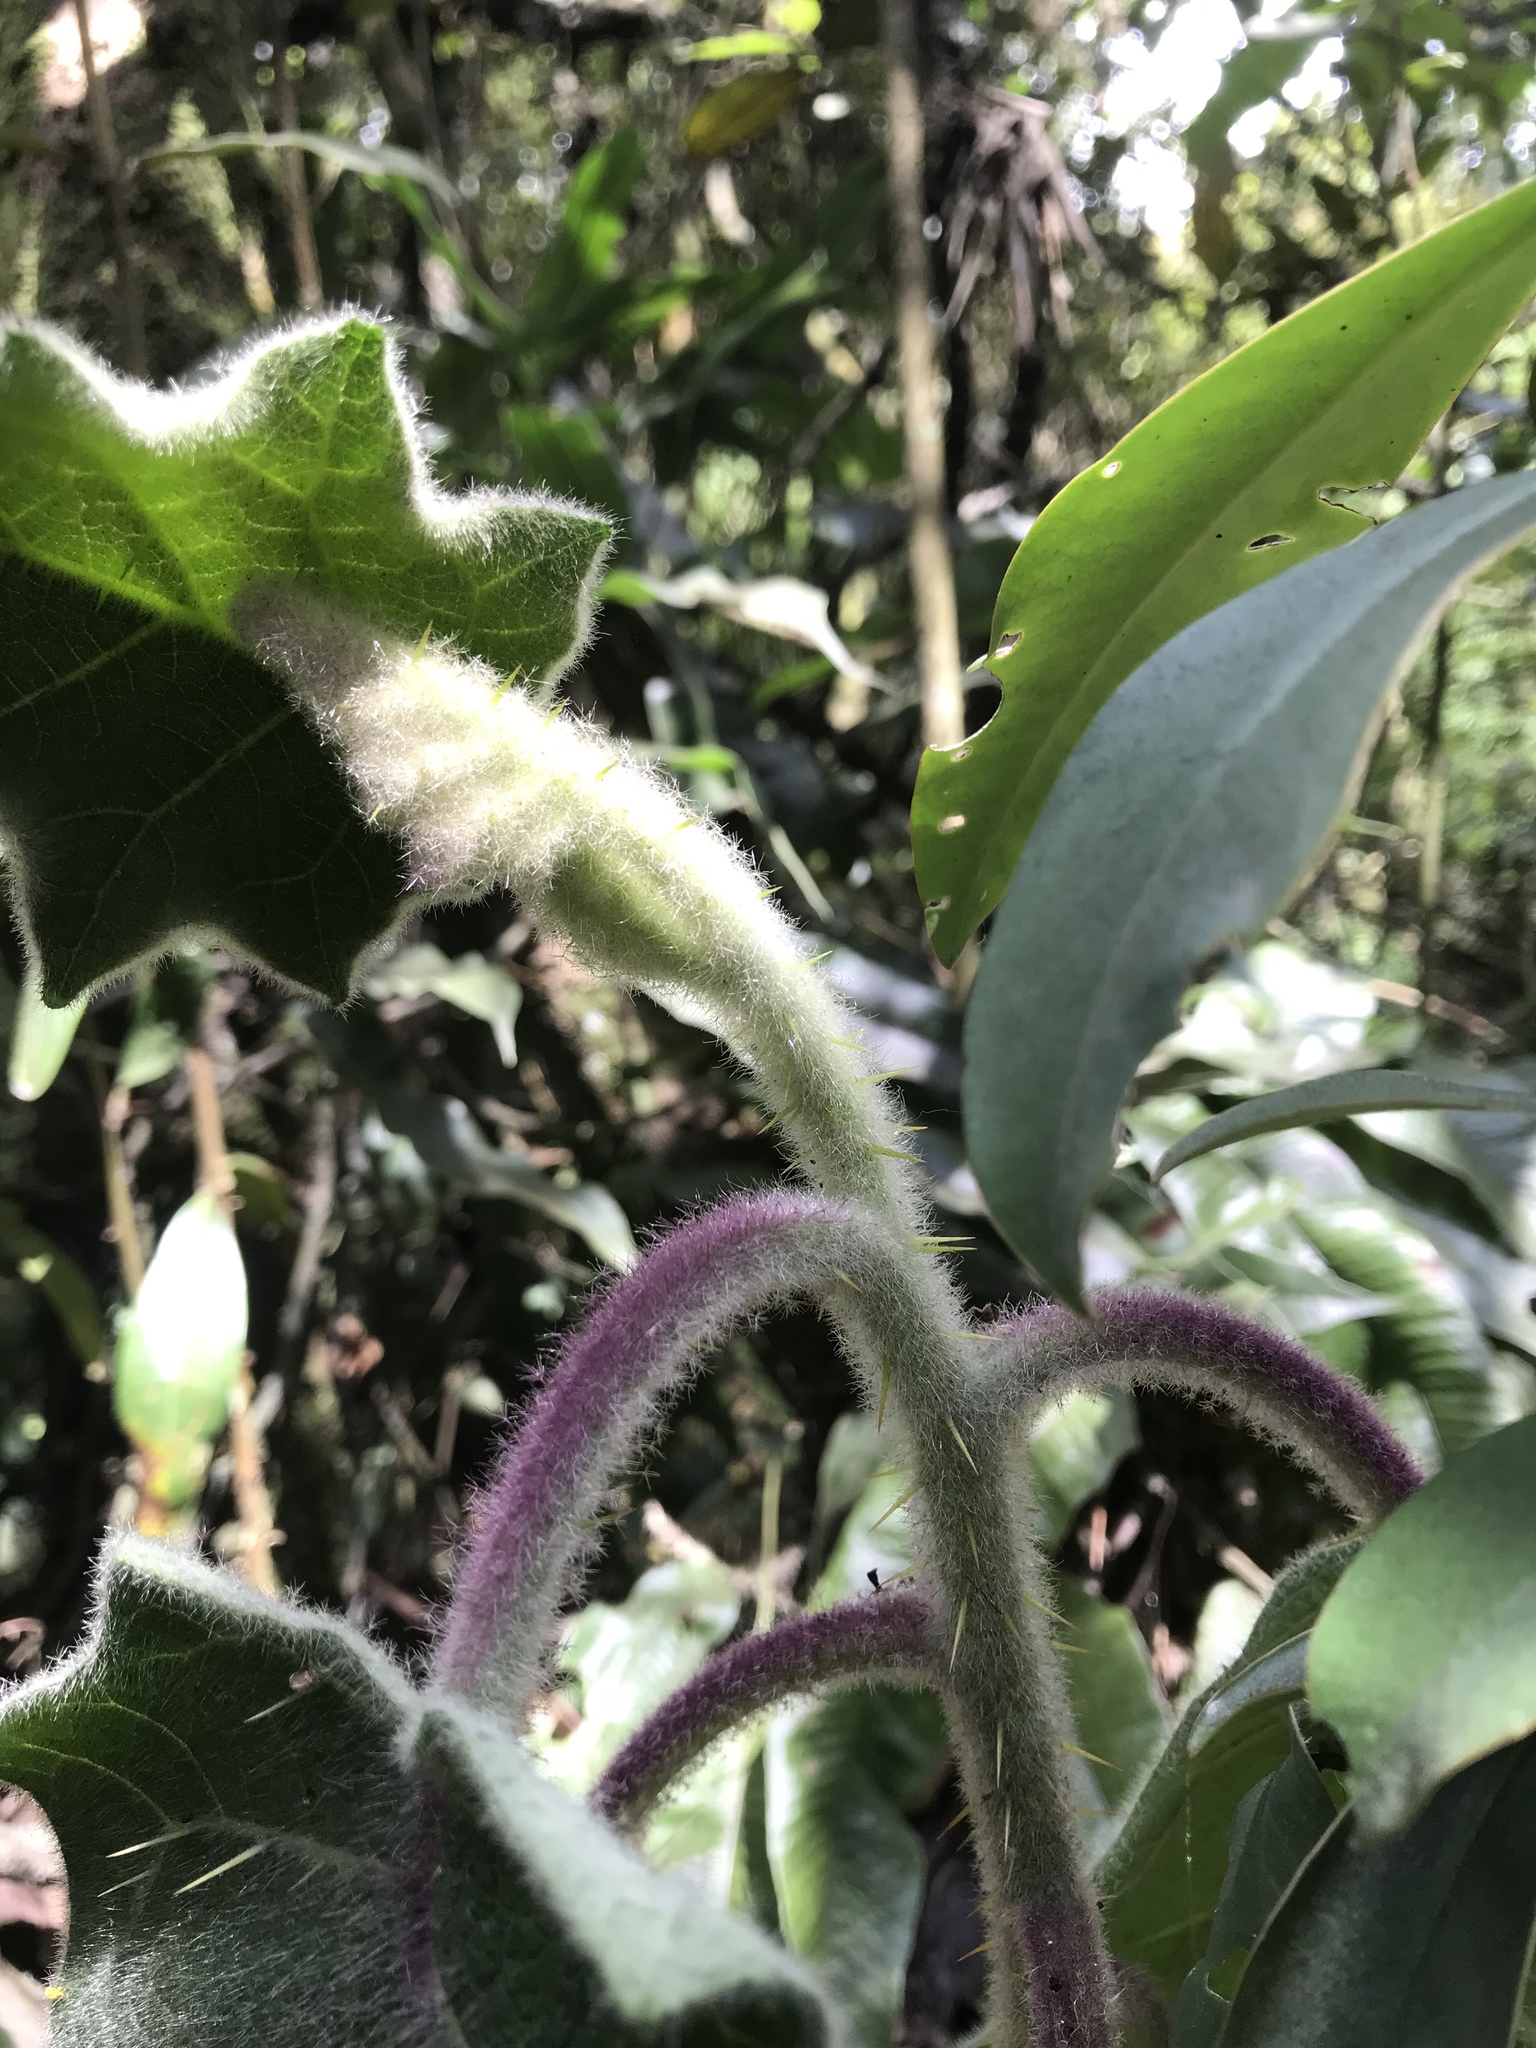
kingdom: Plantae
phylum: Tracheophyta
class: Magnoliopsida
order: Solanales
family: Solanaceae
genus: Solanum
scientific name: Solanum quitoense
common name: Quito-orange
